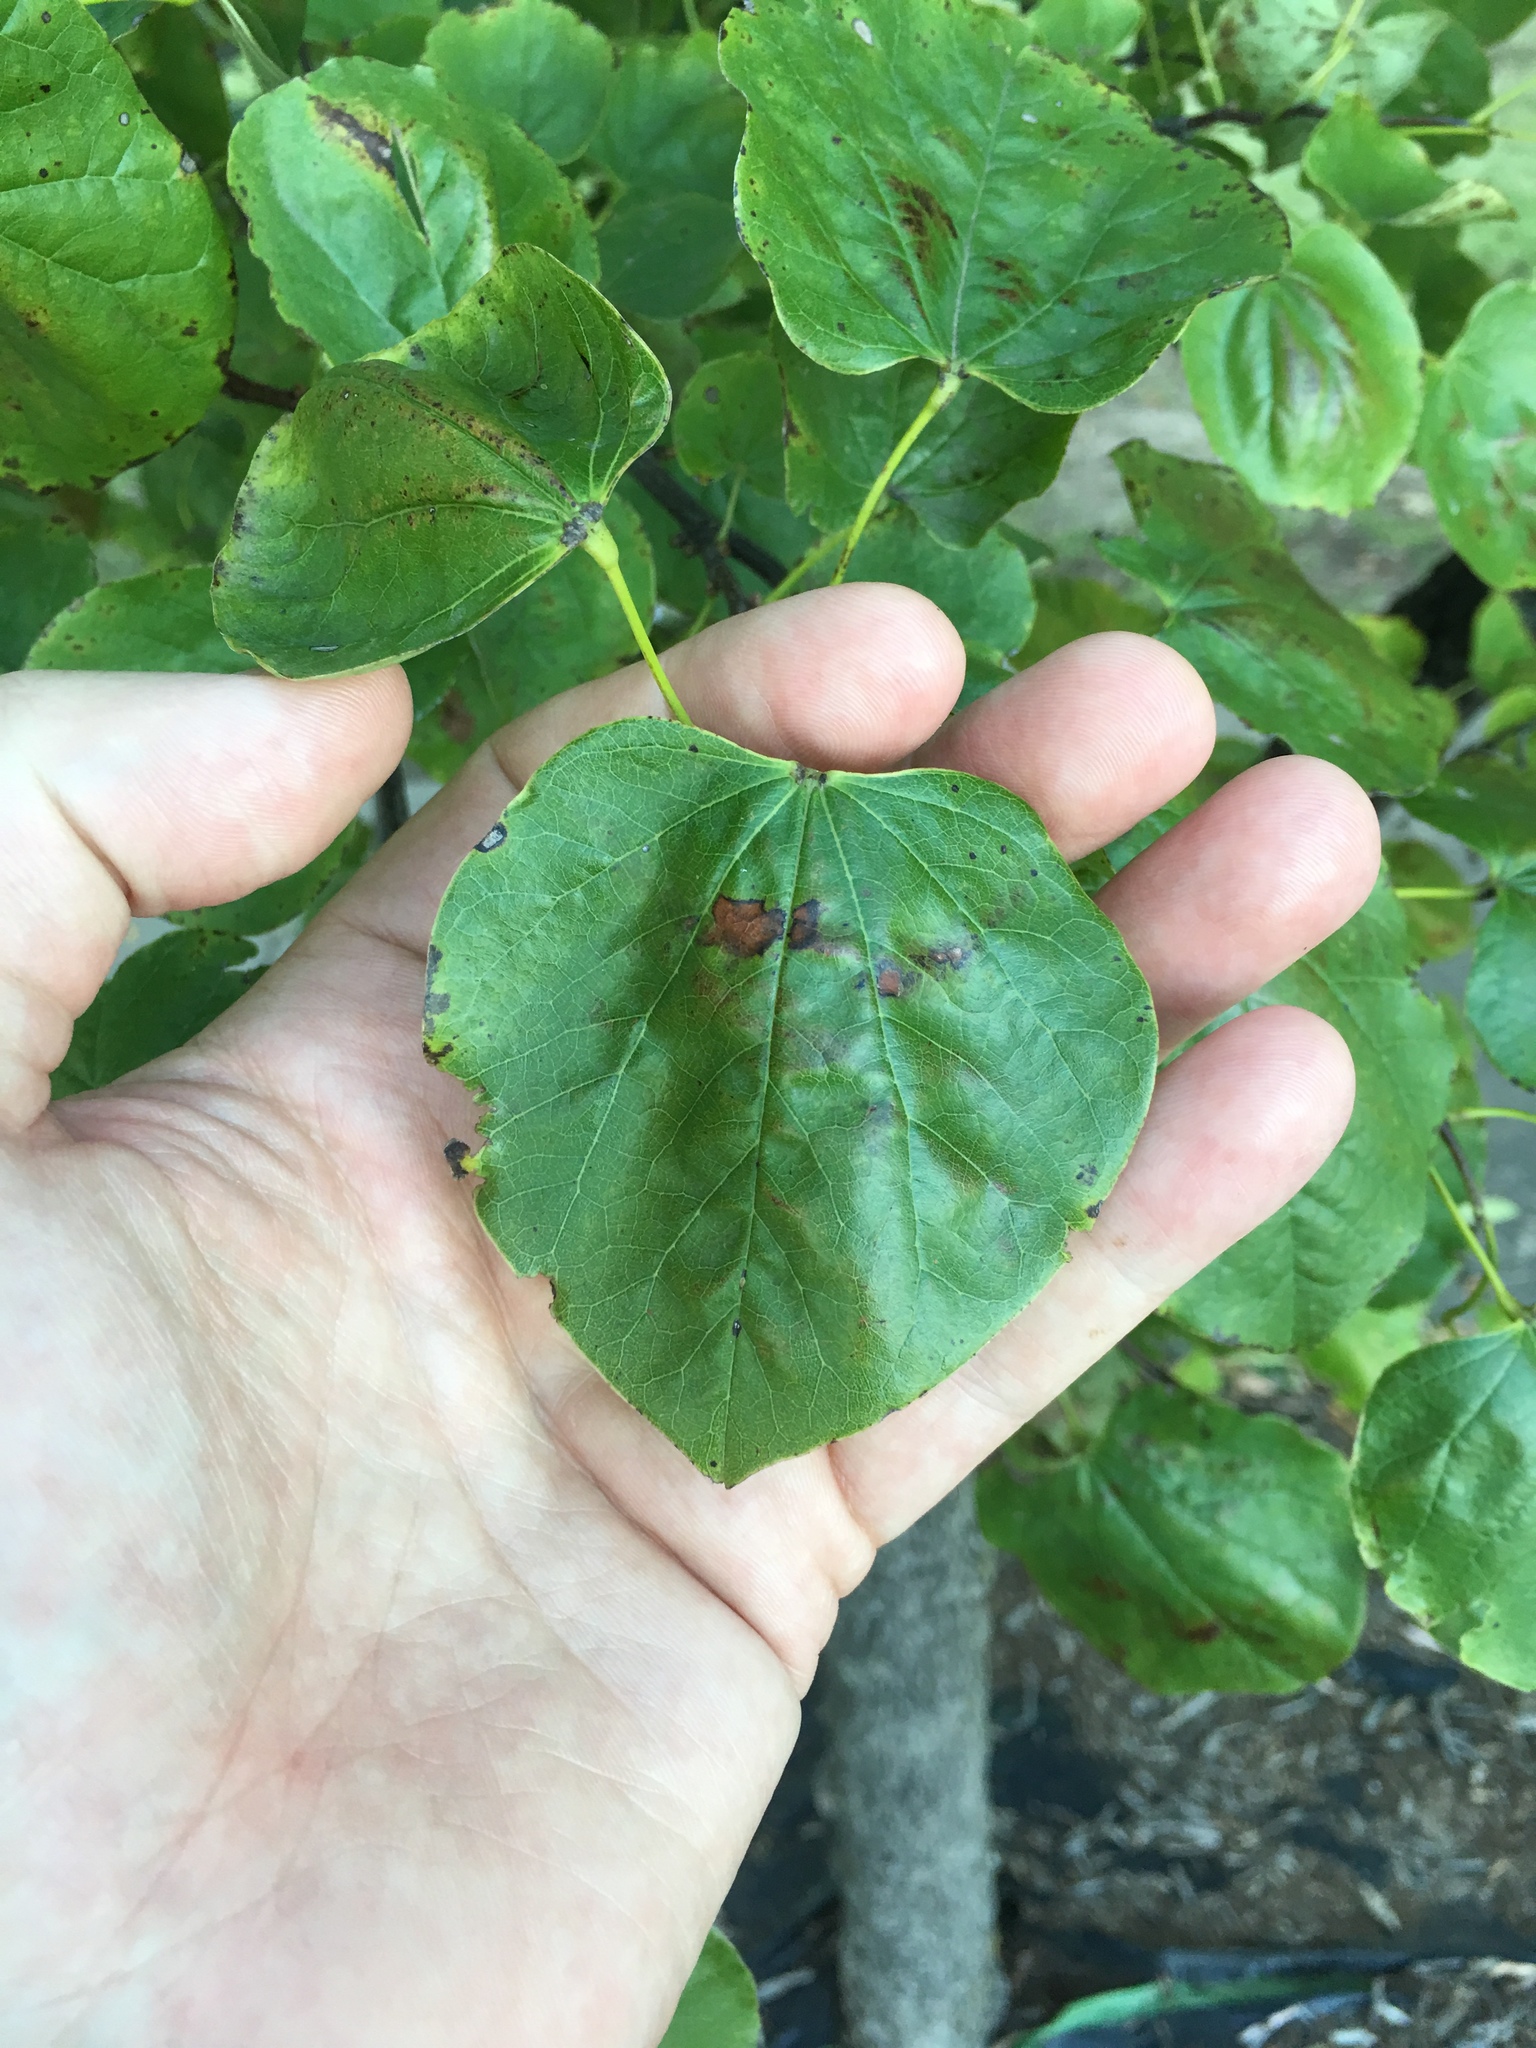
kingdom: Plantae
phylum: Tracheophyta
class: Magnoliopsida
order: Fabales
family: Fabaceae
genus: Cercis
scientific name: Cercis canadensis
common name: Eastern redbud
